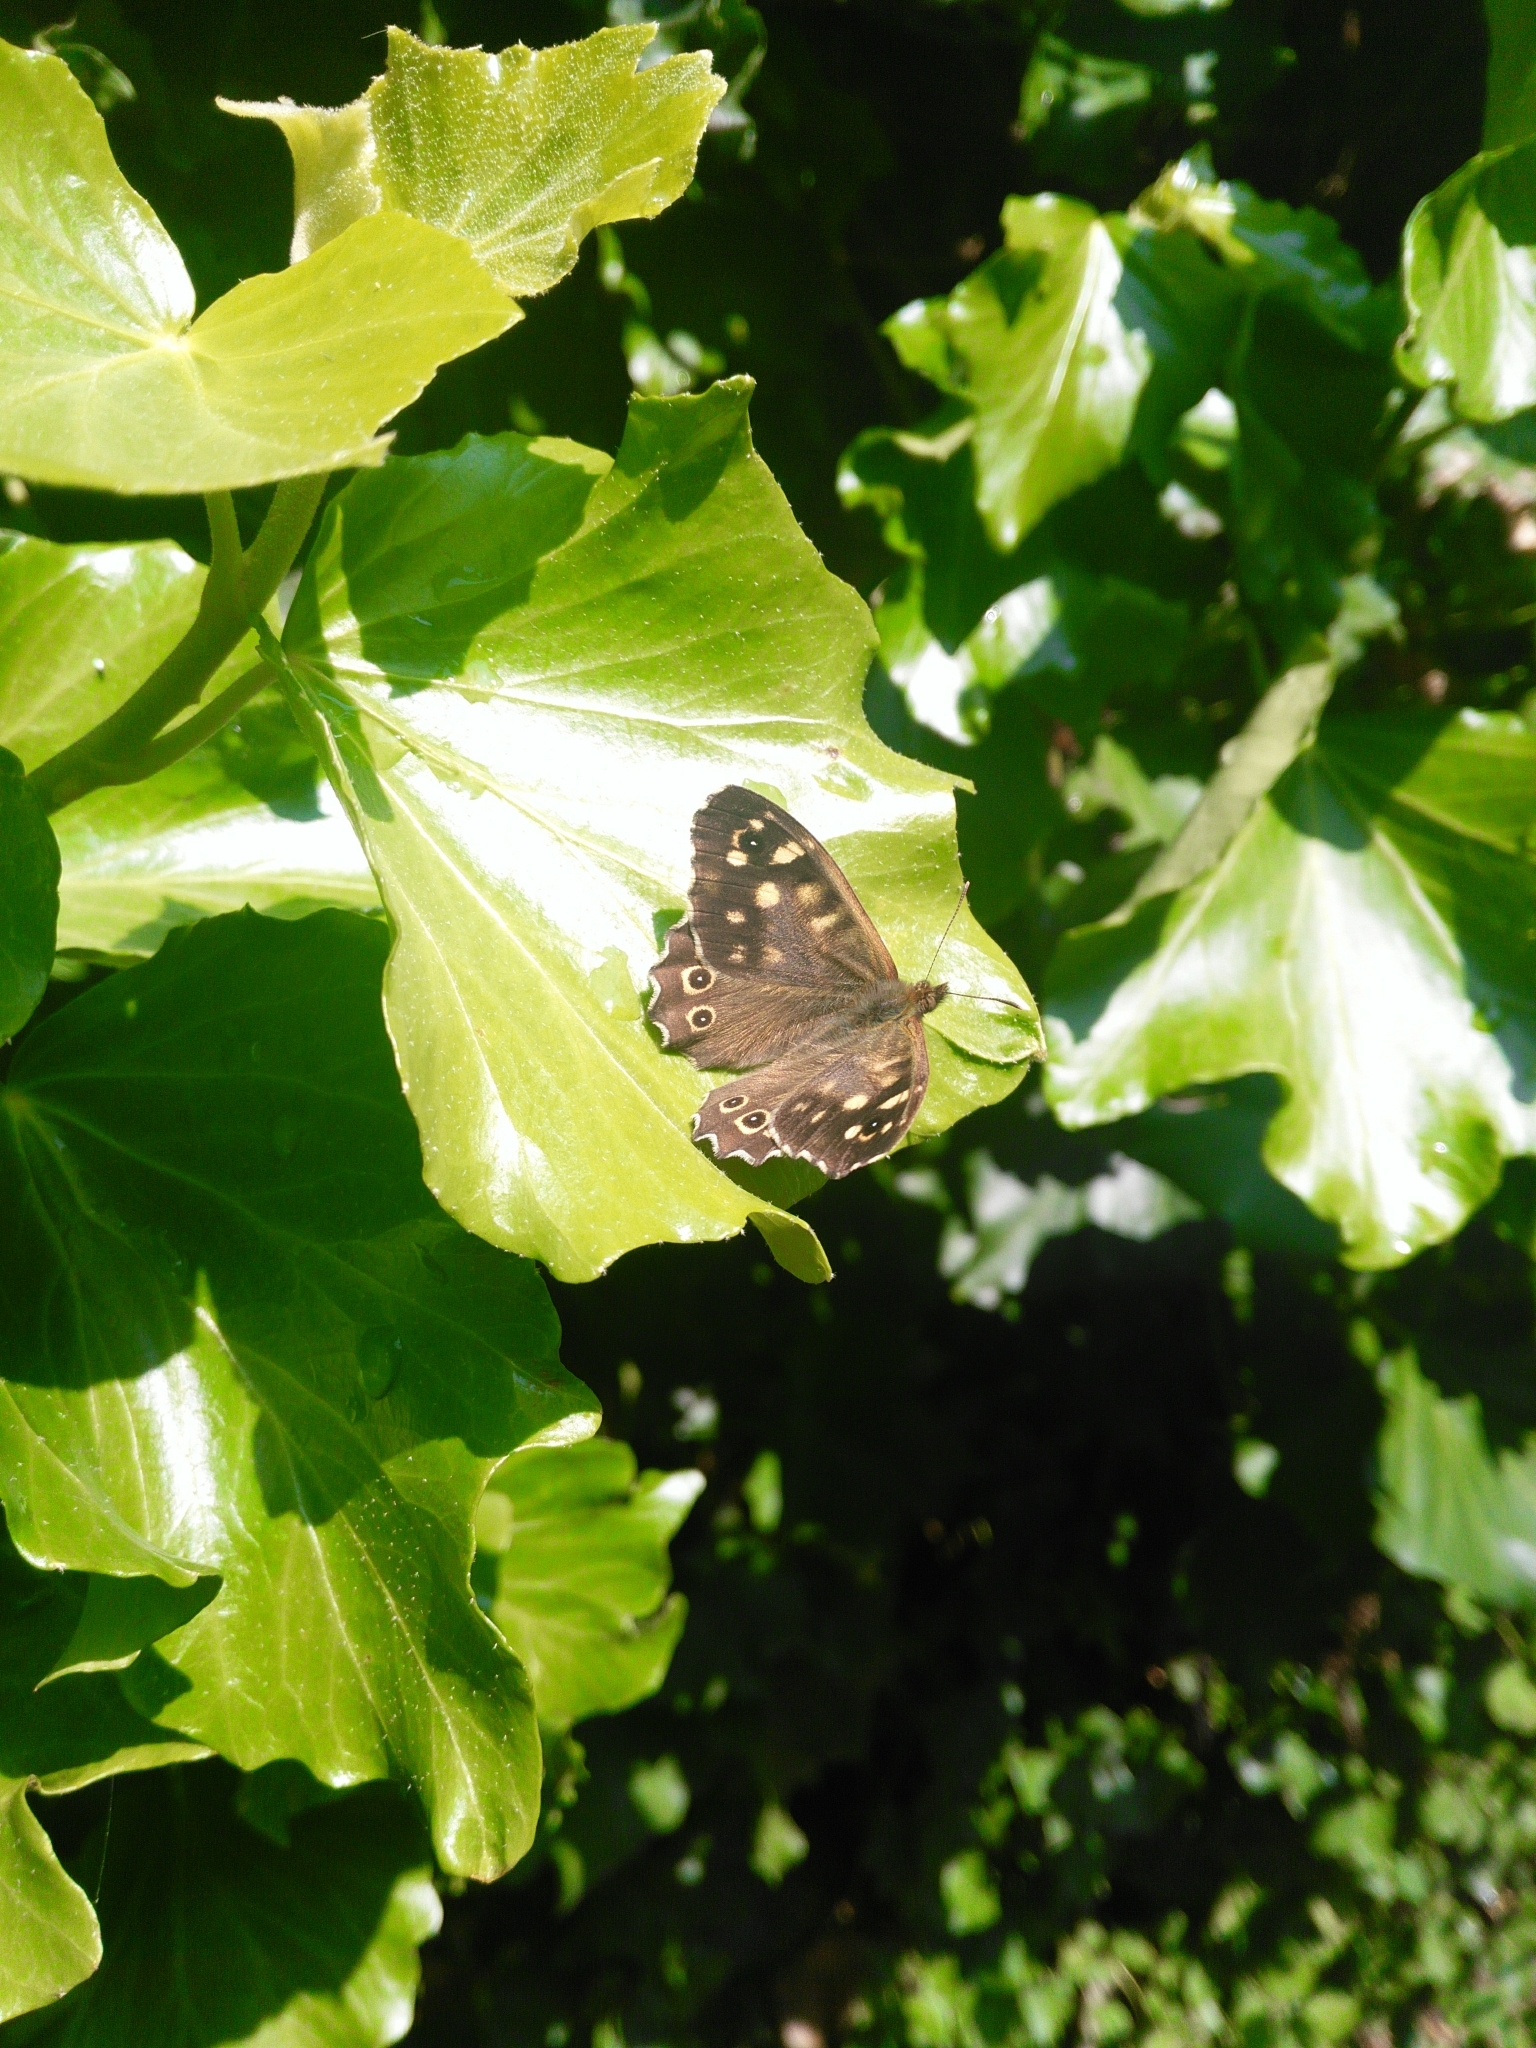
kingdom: Animalia
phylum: Arthropoda
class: Insecta
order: Lepidoptera
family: Nymphalidae
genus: Pararge
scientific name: Pararge aegeria
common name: Speckled wood
